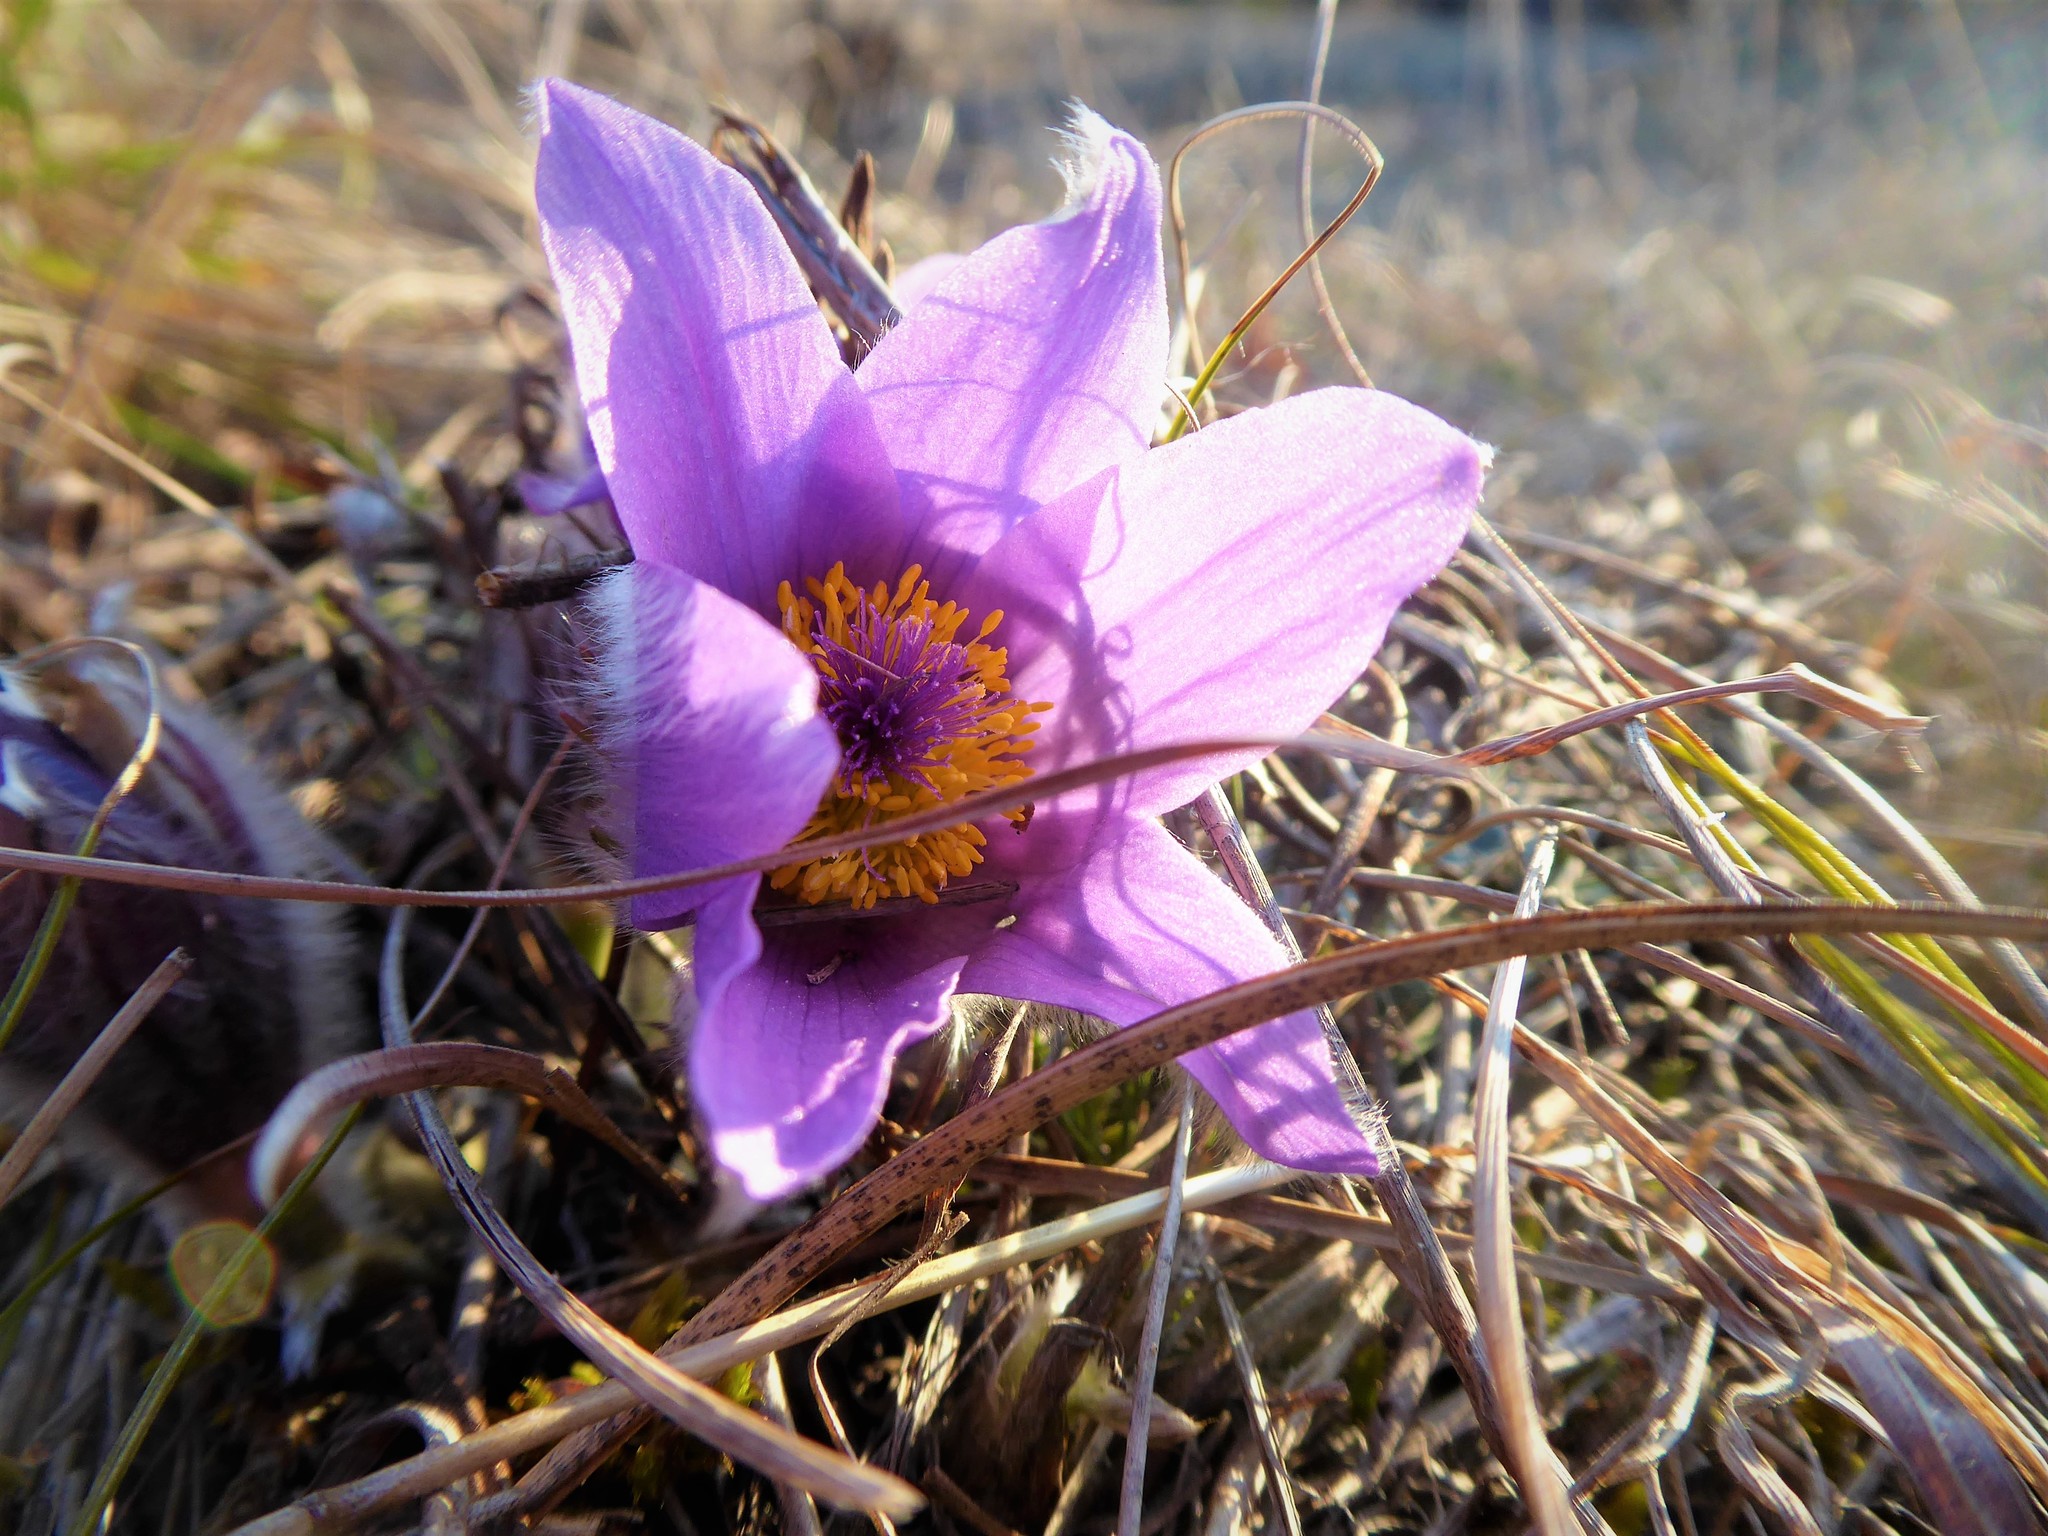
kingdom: Plantae
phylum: Tracheophyta
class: Magnoliopsida
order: Ranunculales
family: Ranunculaceae
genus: Pulsatilla
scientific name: Pulsatilla grandis
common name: Greater pasque flower
